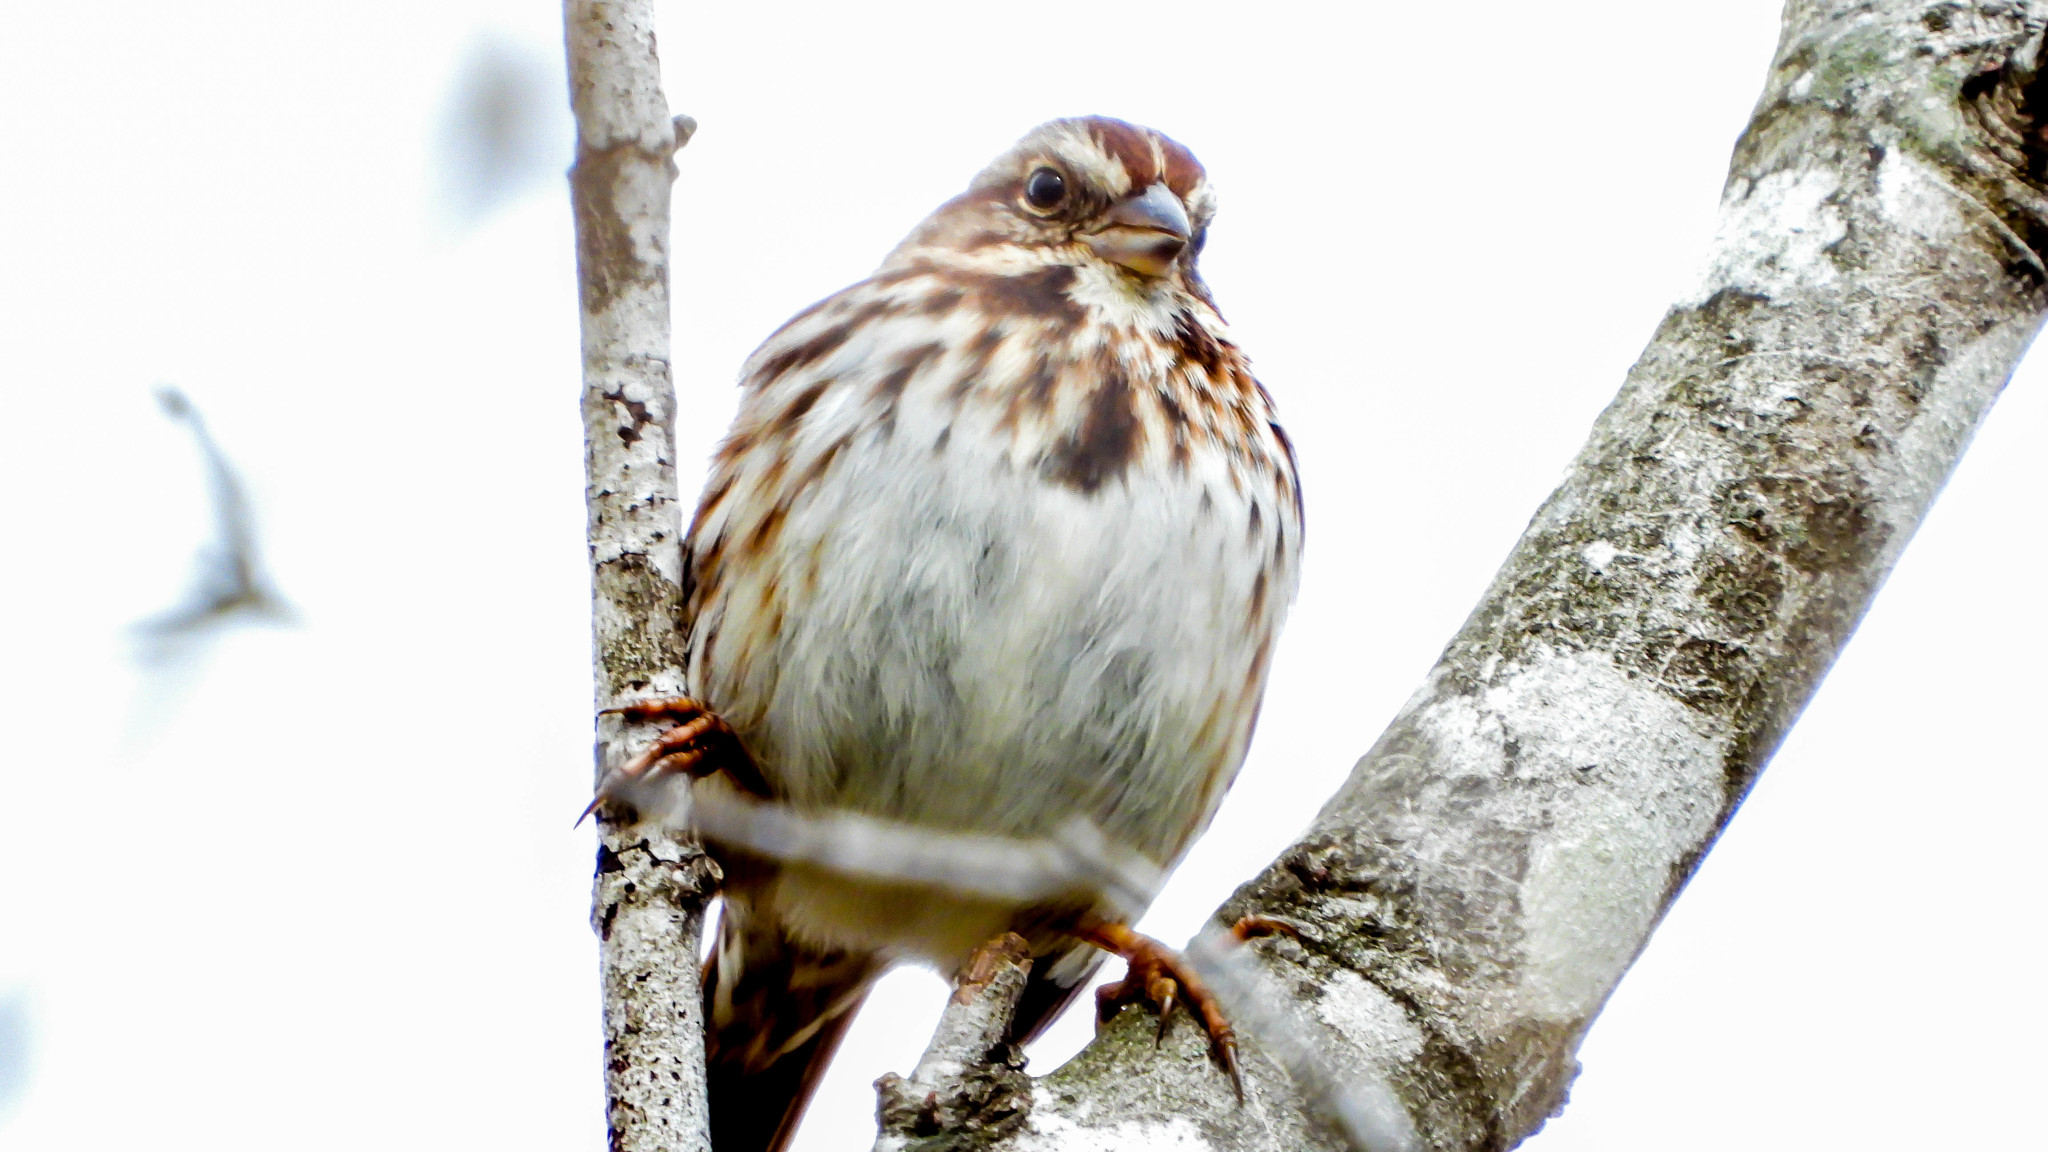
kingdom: Animalia
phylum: Chordata
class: Aves
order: Passeriformes
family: Passerellidae
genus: Melospiza
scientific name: Melospiza melodia
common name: Song sparrow
